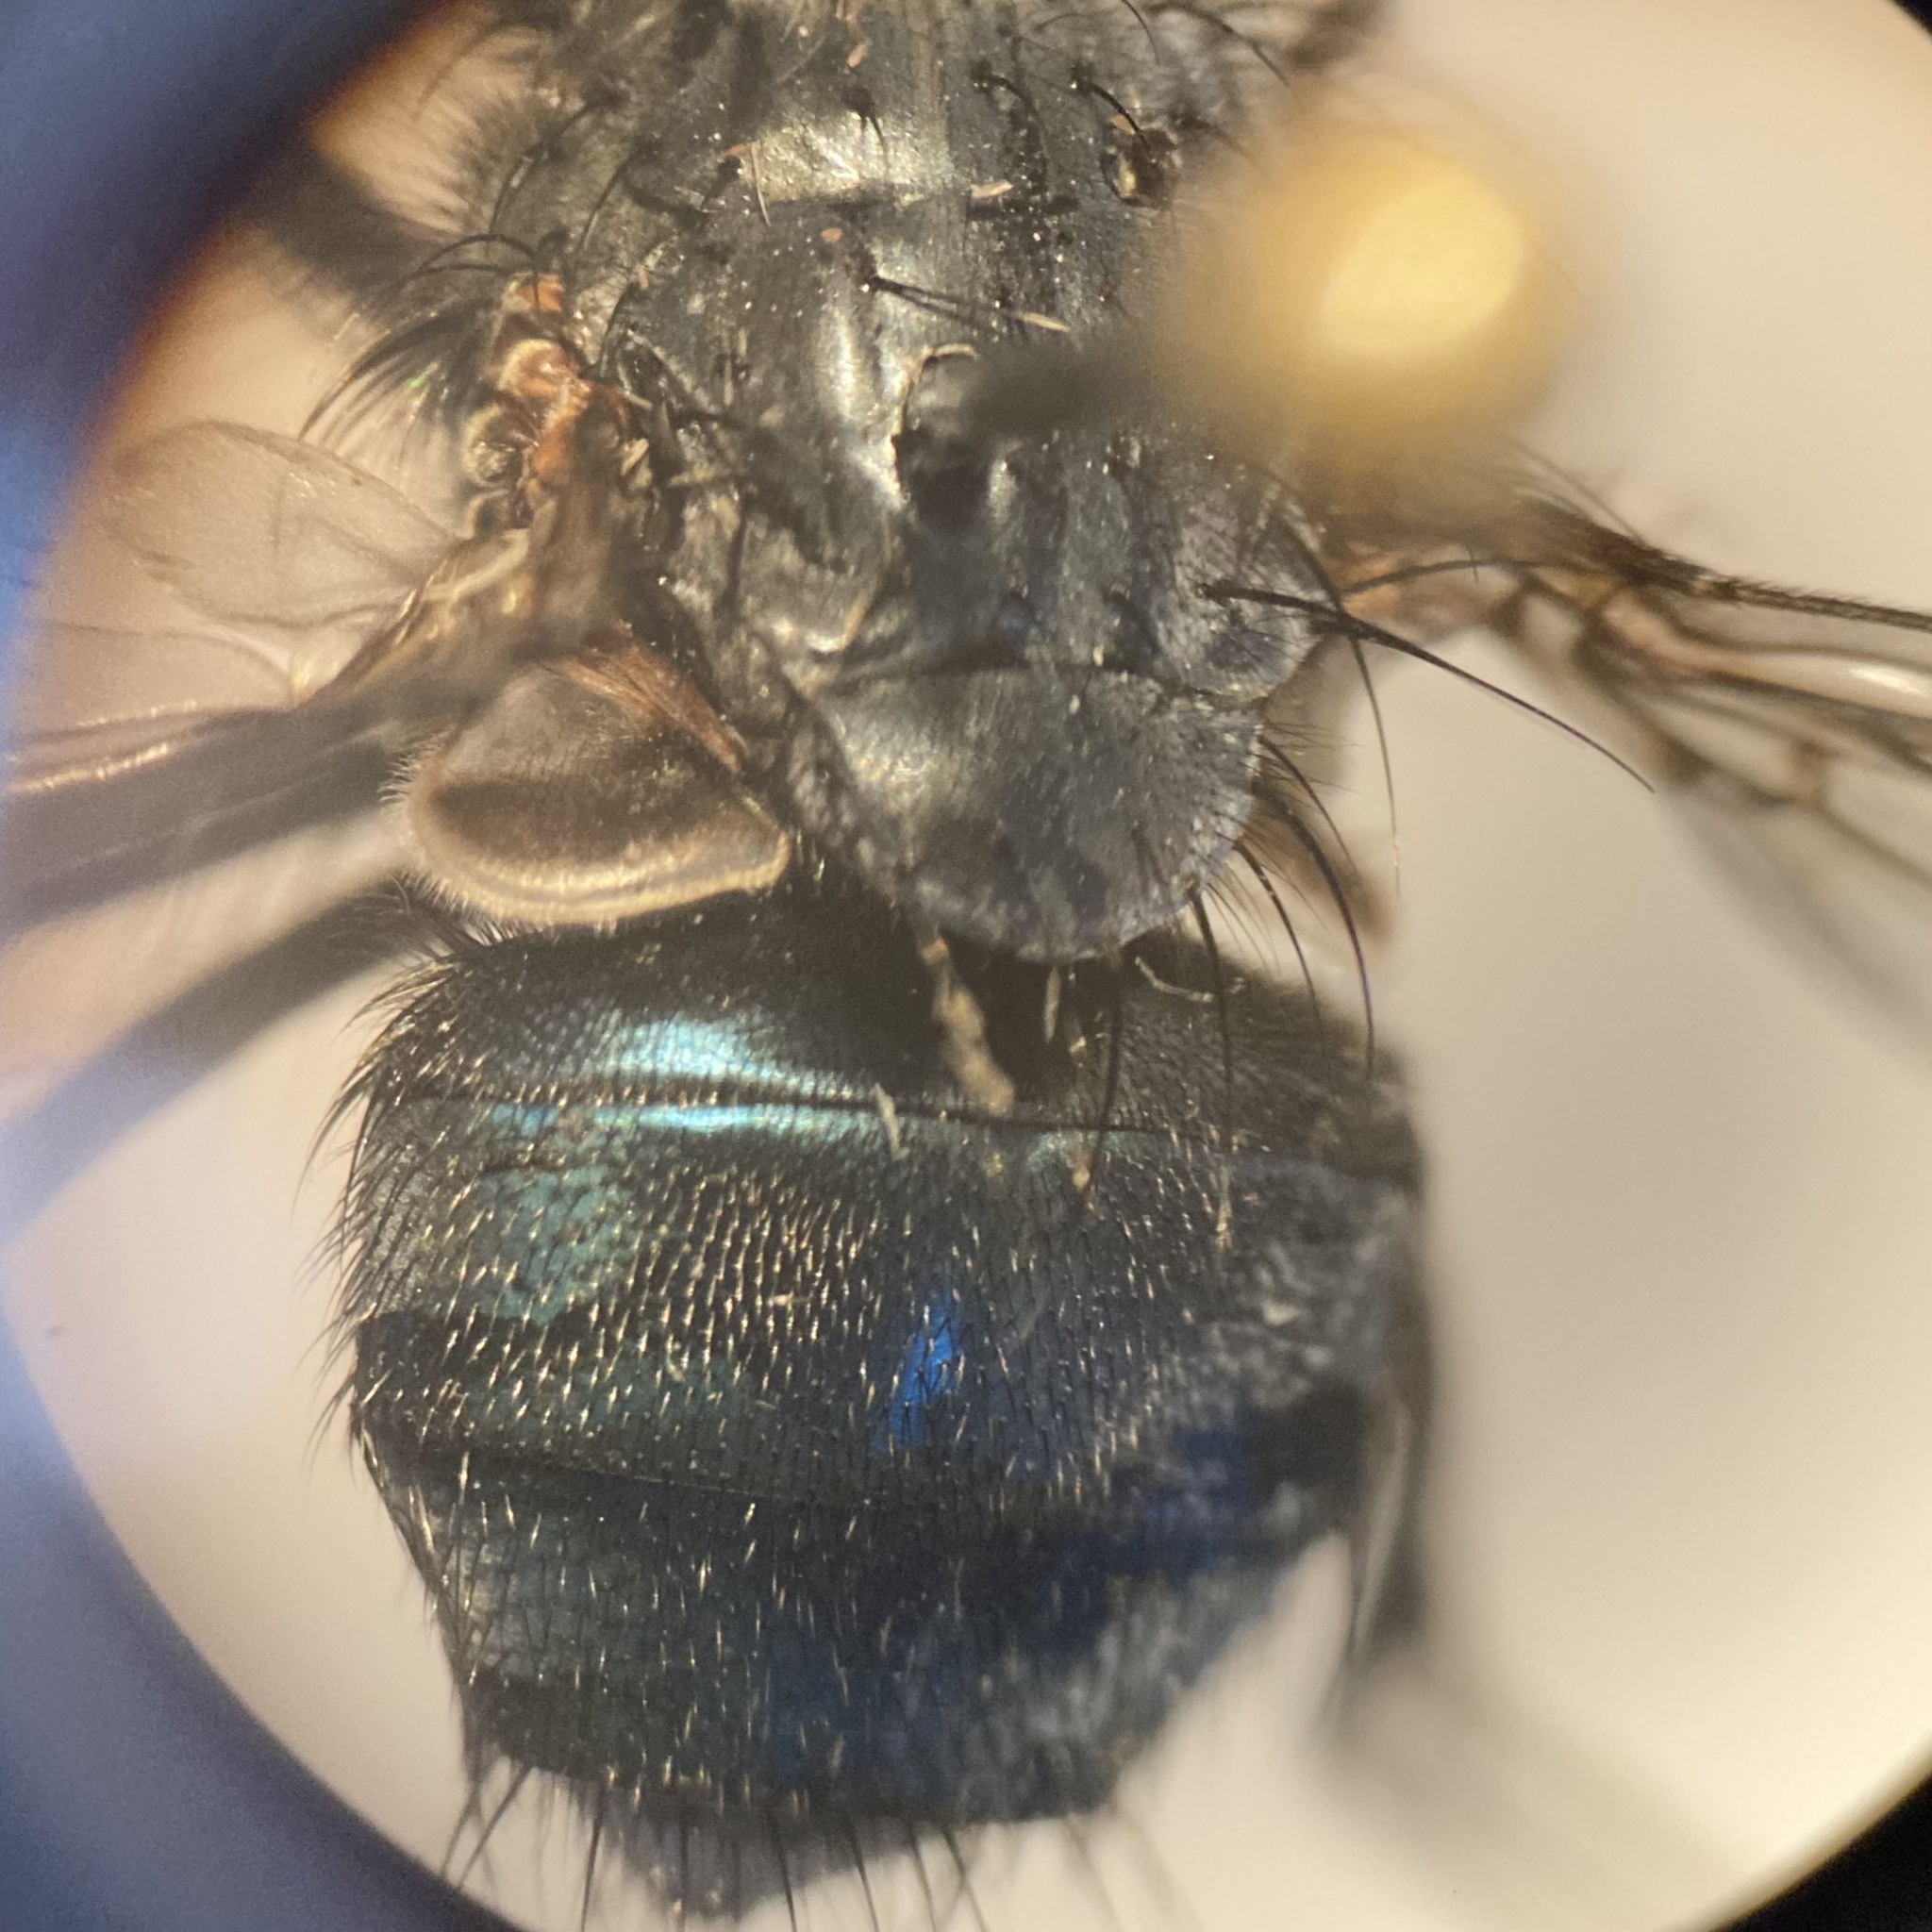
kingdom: Animalia
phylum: Arthropoda
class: Insecta
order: Diptera
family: Calliphoridae
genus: Calliphora
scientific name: Calliphora vicina
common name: Common blow flie
